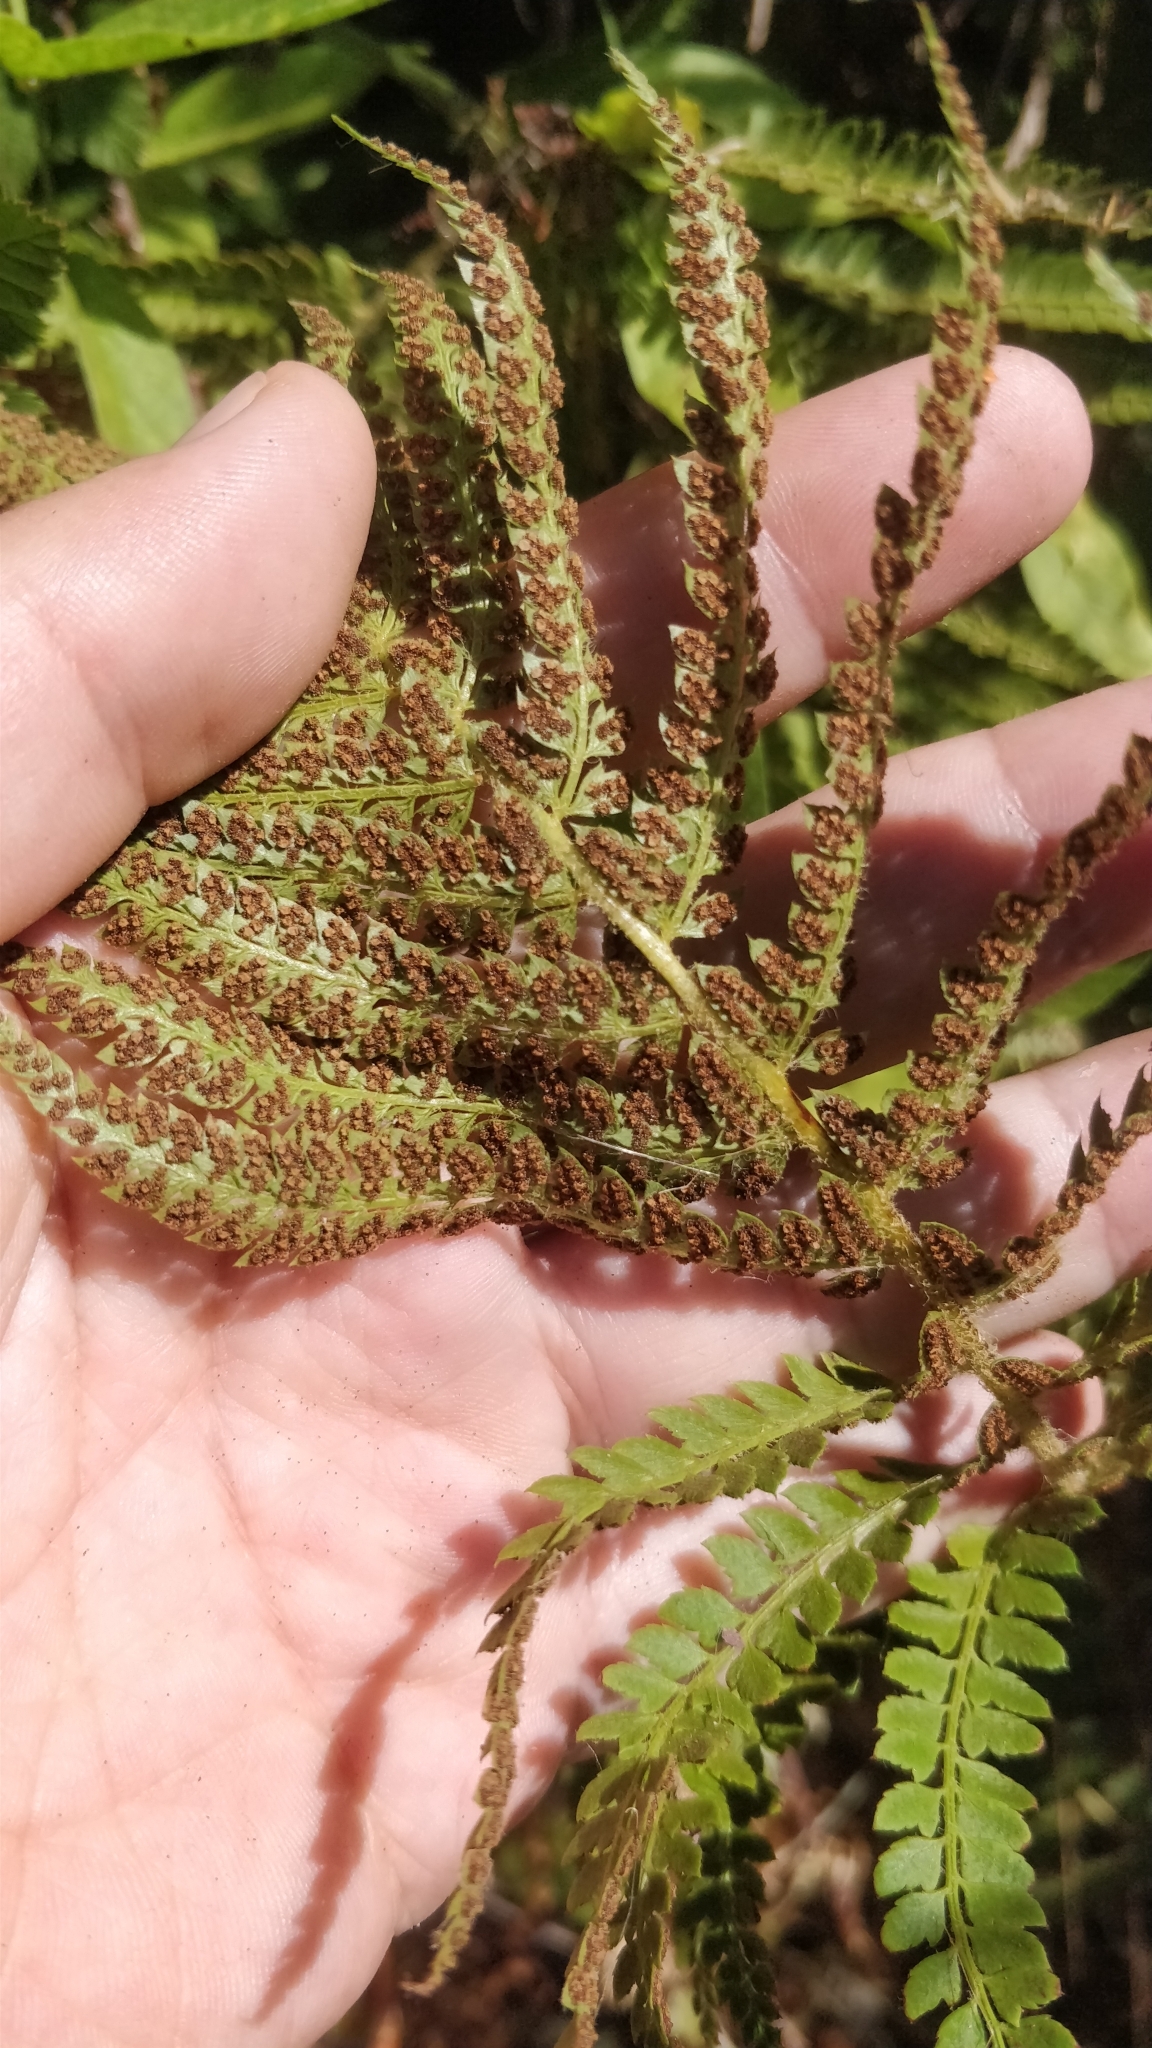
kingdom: Plantae
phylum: Tracheophyta
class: Polypodiopsida
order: Polypodiales
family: Dryopteridaceae
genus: Polystichum
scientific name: Polystichum setiferum
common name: Soft shield-fern
